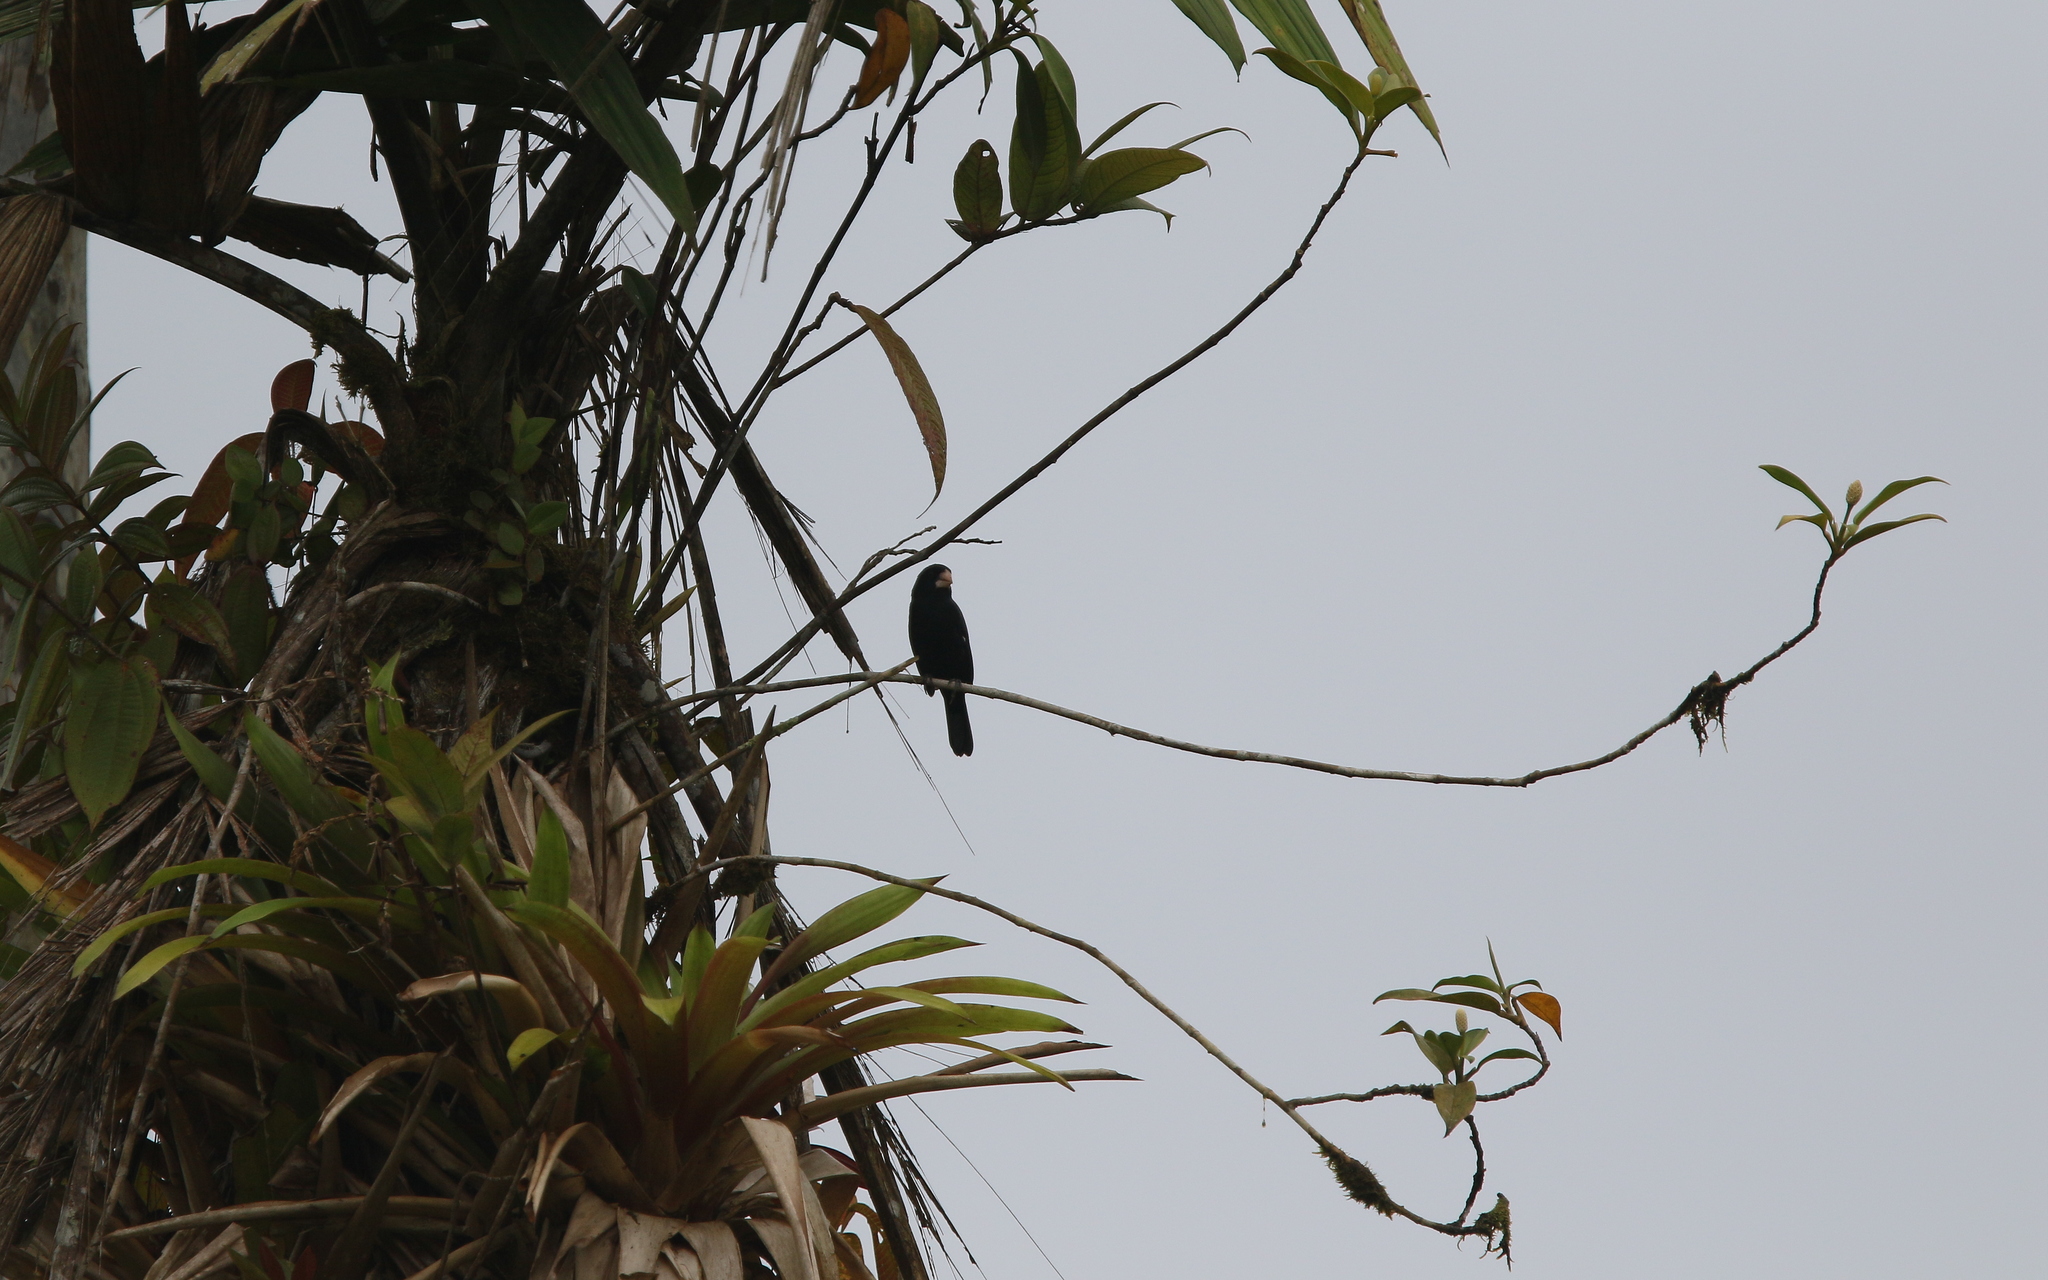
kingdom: Animalia
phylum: Chordata
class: Aves
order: Passeriformes
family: Thraupidae
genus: Sporophila
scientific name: Sporophila crassirostris
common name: Large-billed seed-finch
